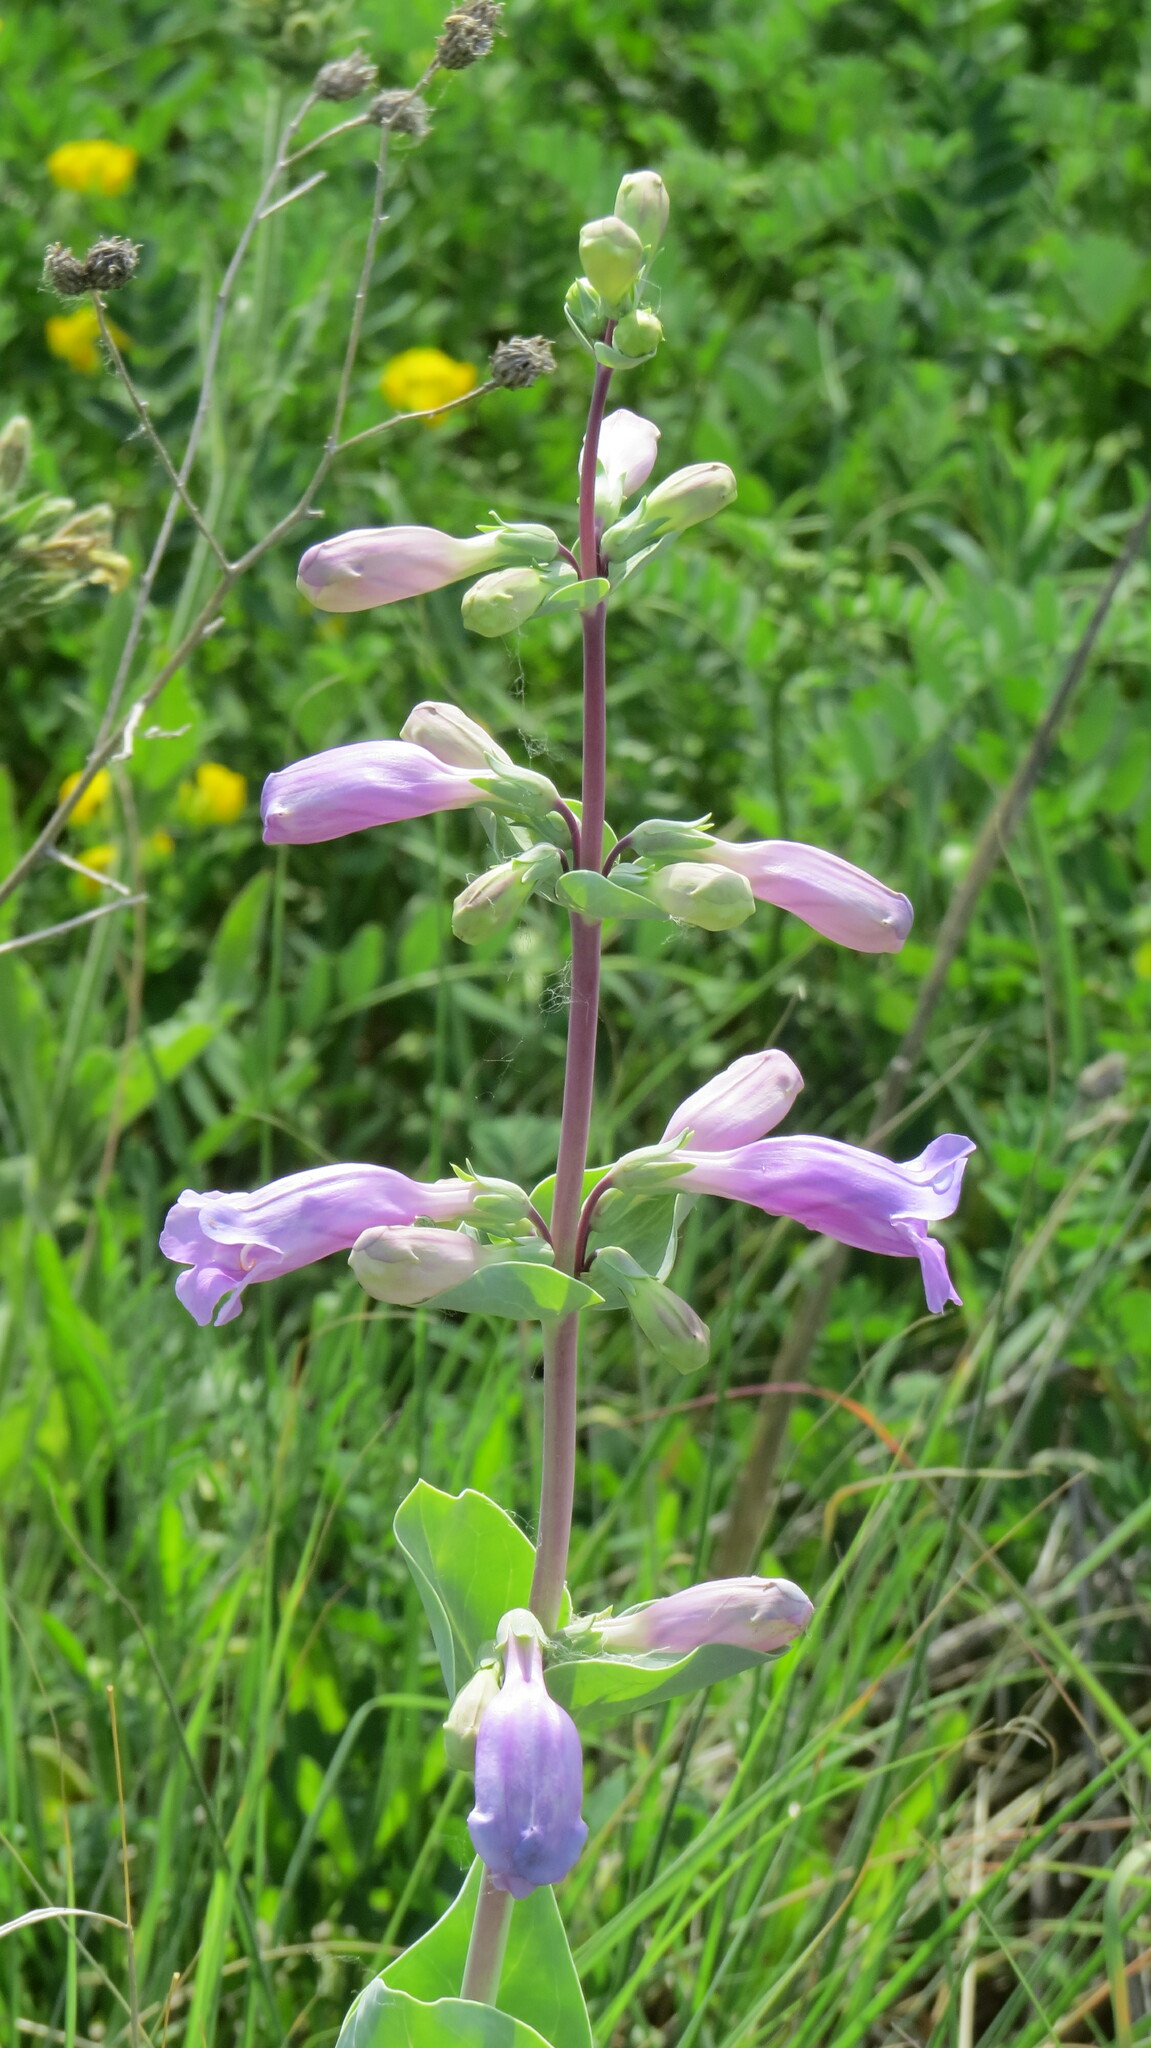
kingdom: Plantae
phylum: Tracheophyta
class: Magnoliopsida
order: Lamiales
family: Plantaginaceae
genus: Penstemon
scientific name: Penstemon
